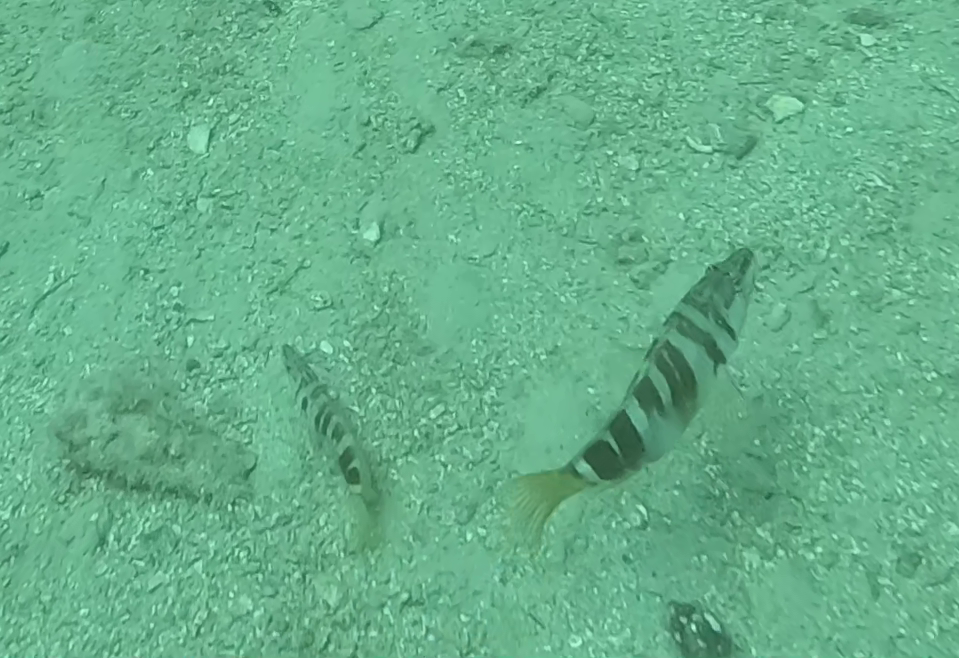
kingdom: Animalia
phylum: Chordata
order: Perciformes
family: Serranidae
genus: Serranus
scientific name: Serranus scriba
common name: Painted comber
